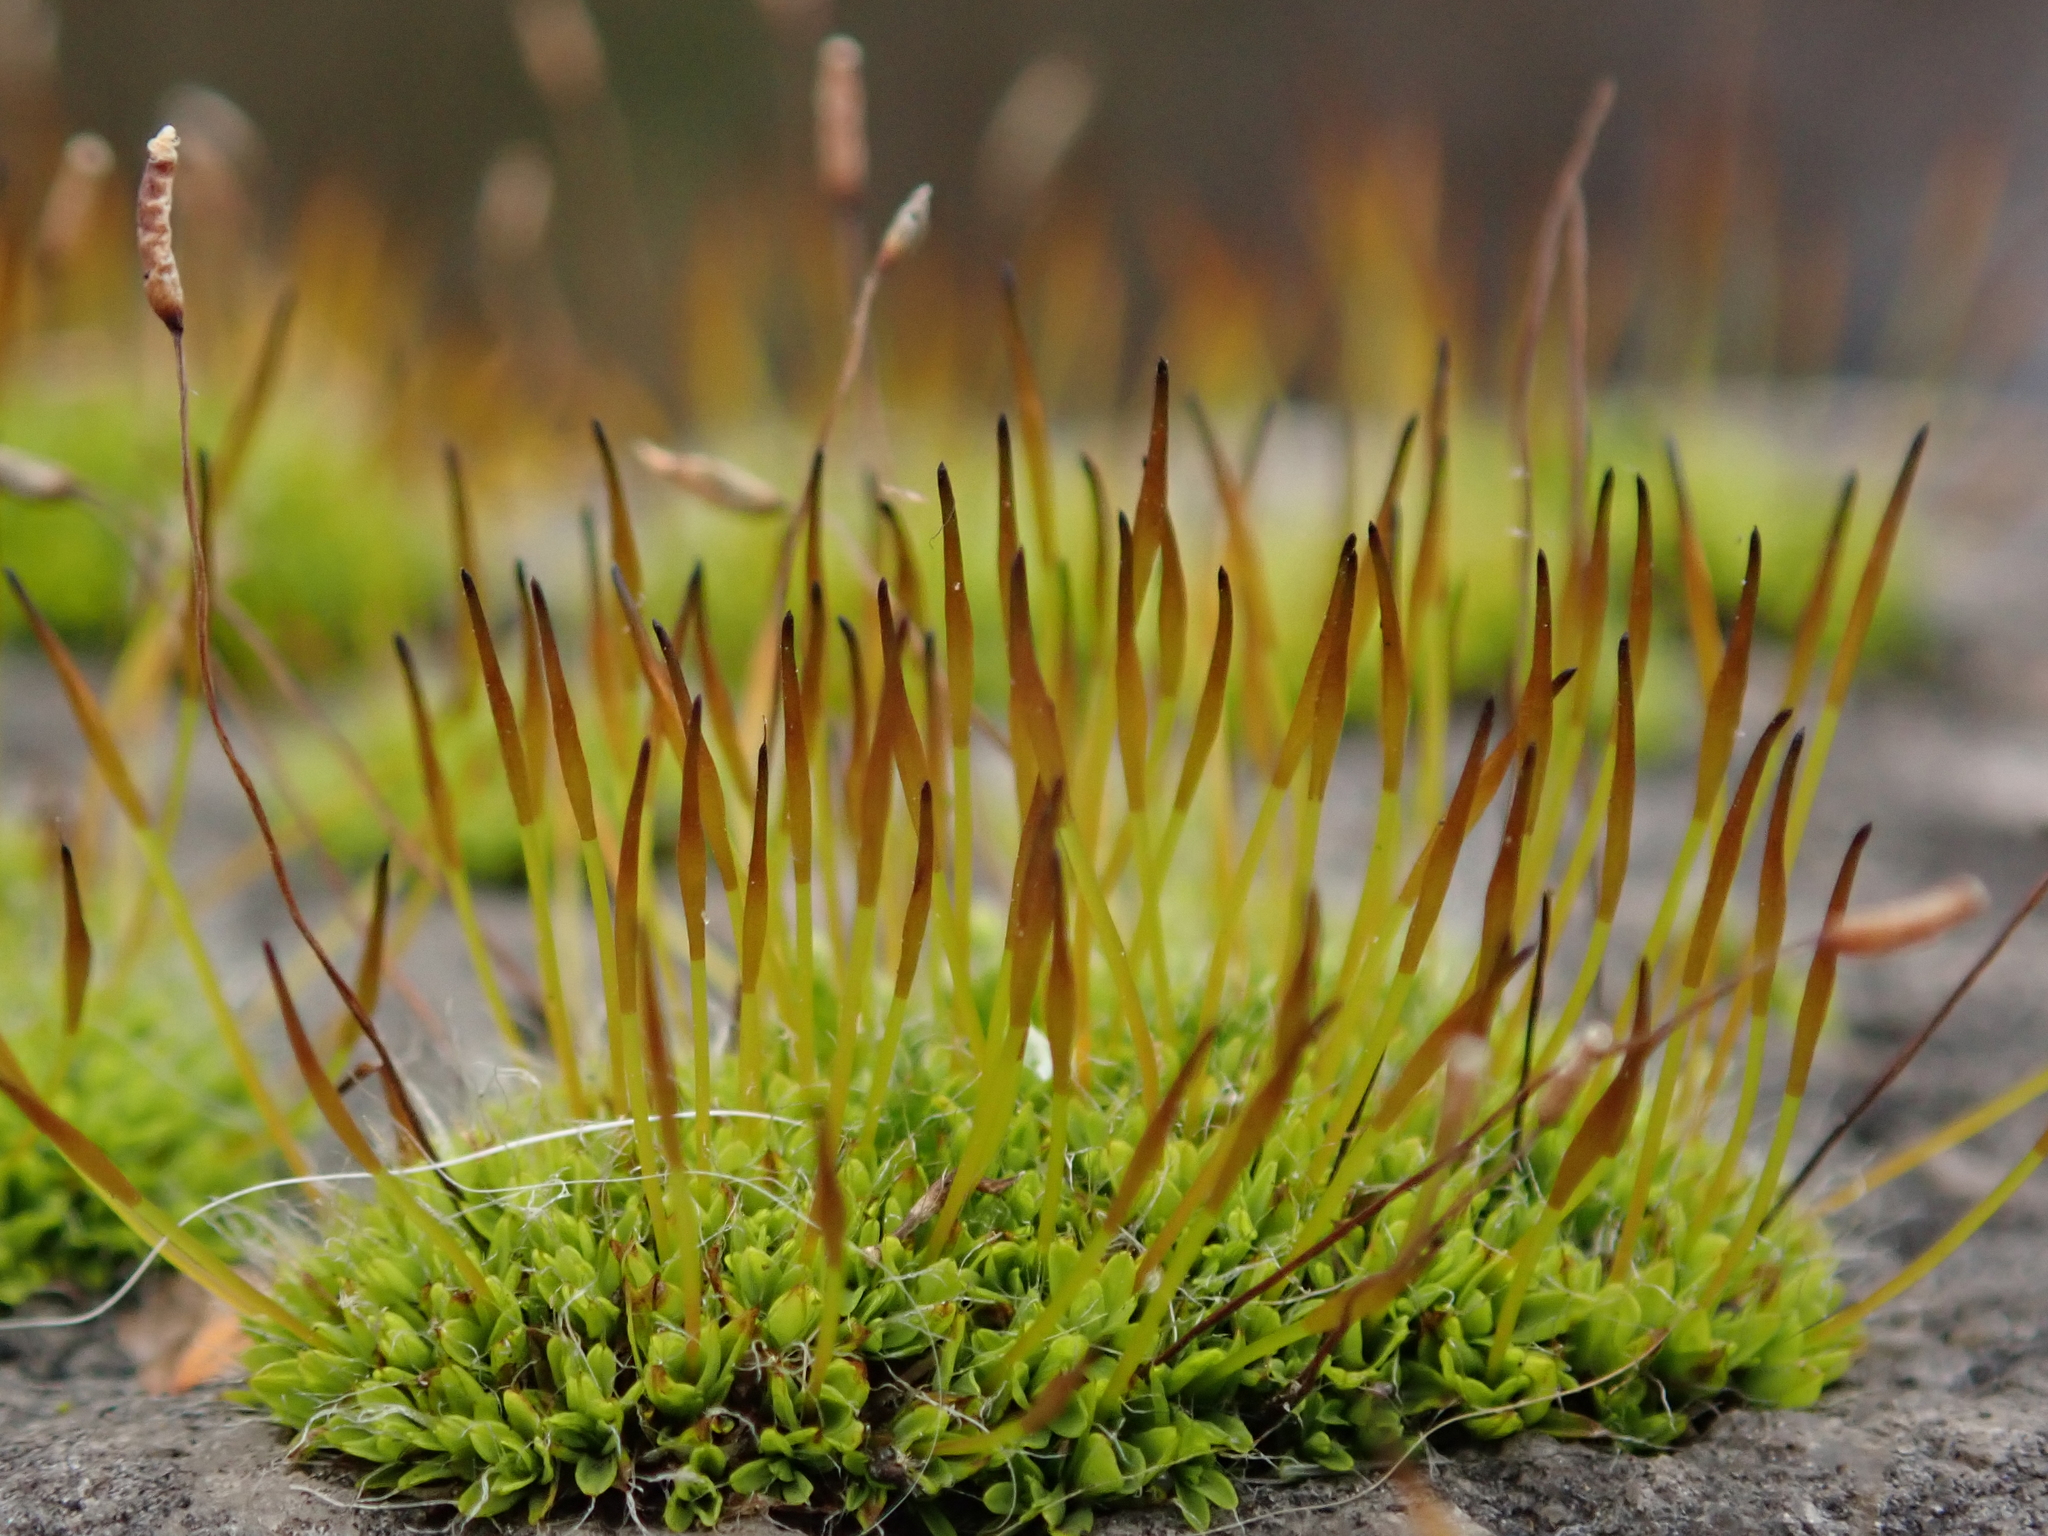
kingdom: Plantae
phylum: Bryophyta
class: Bryopsida
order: Pottiales
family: Pottiaceae
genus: Tortula
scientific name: Tortula muralis
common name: Wall screw-moss
